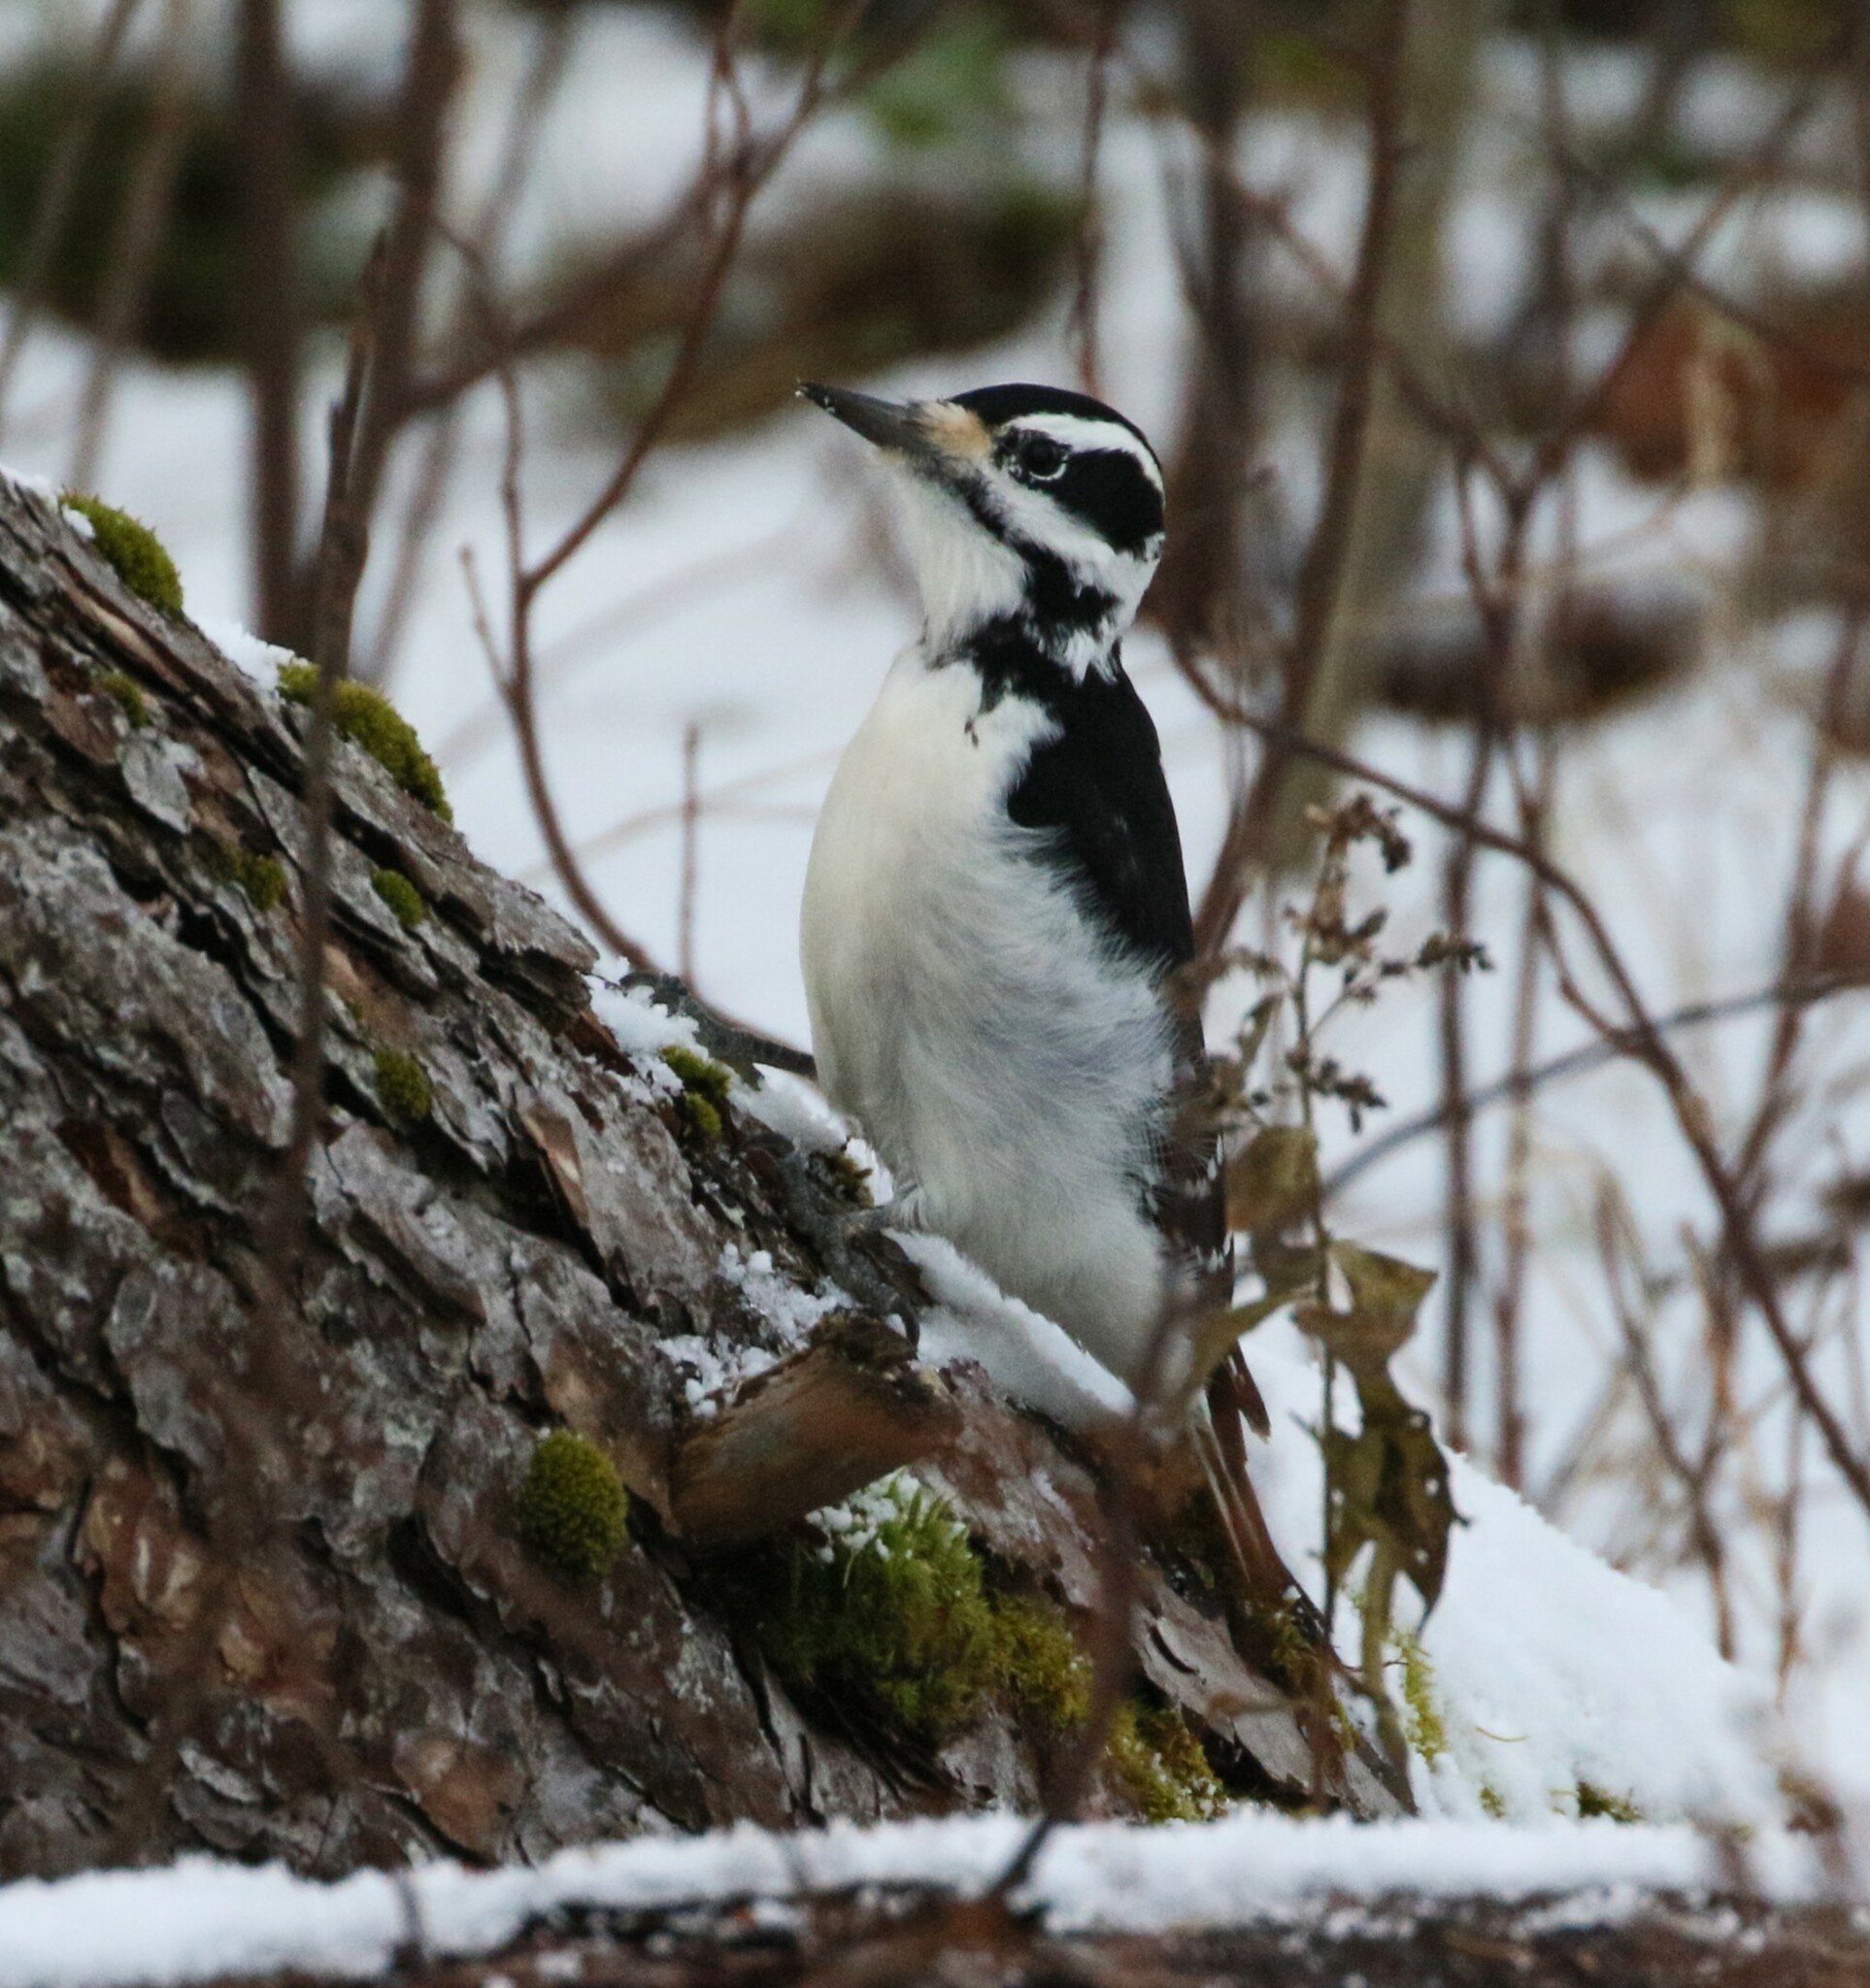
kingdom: Animalia
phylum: Chordata
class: Aves
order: Piciformes
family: Picidae
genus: Leuconotopicus
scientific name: Leuconotopicus villosus
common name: Hairy woodpecker
